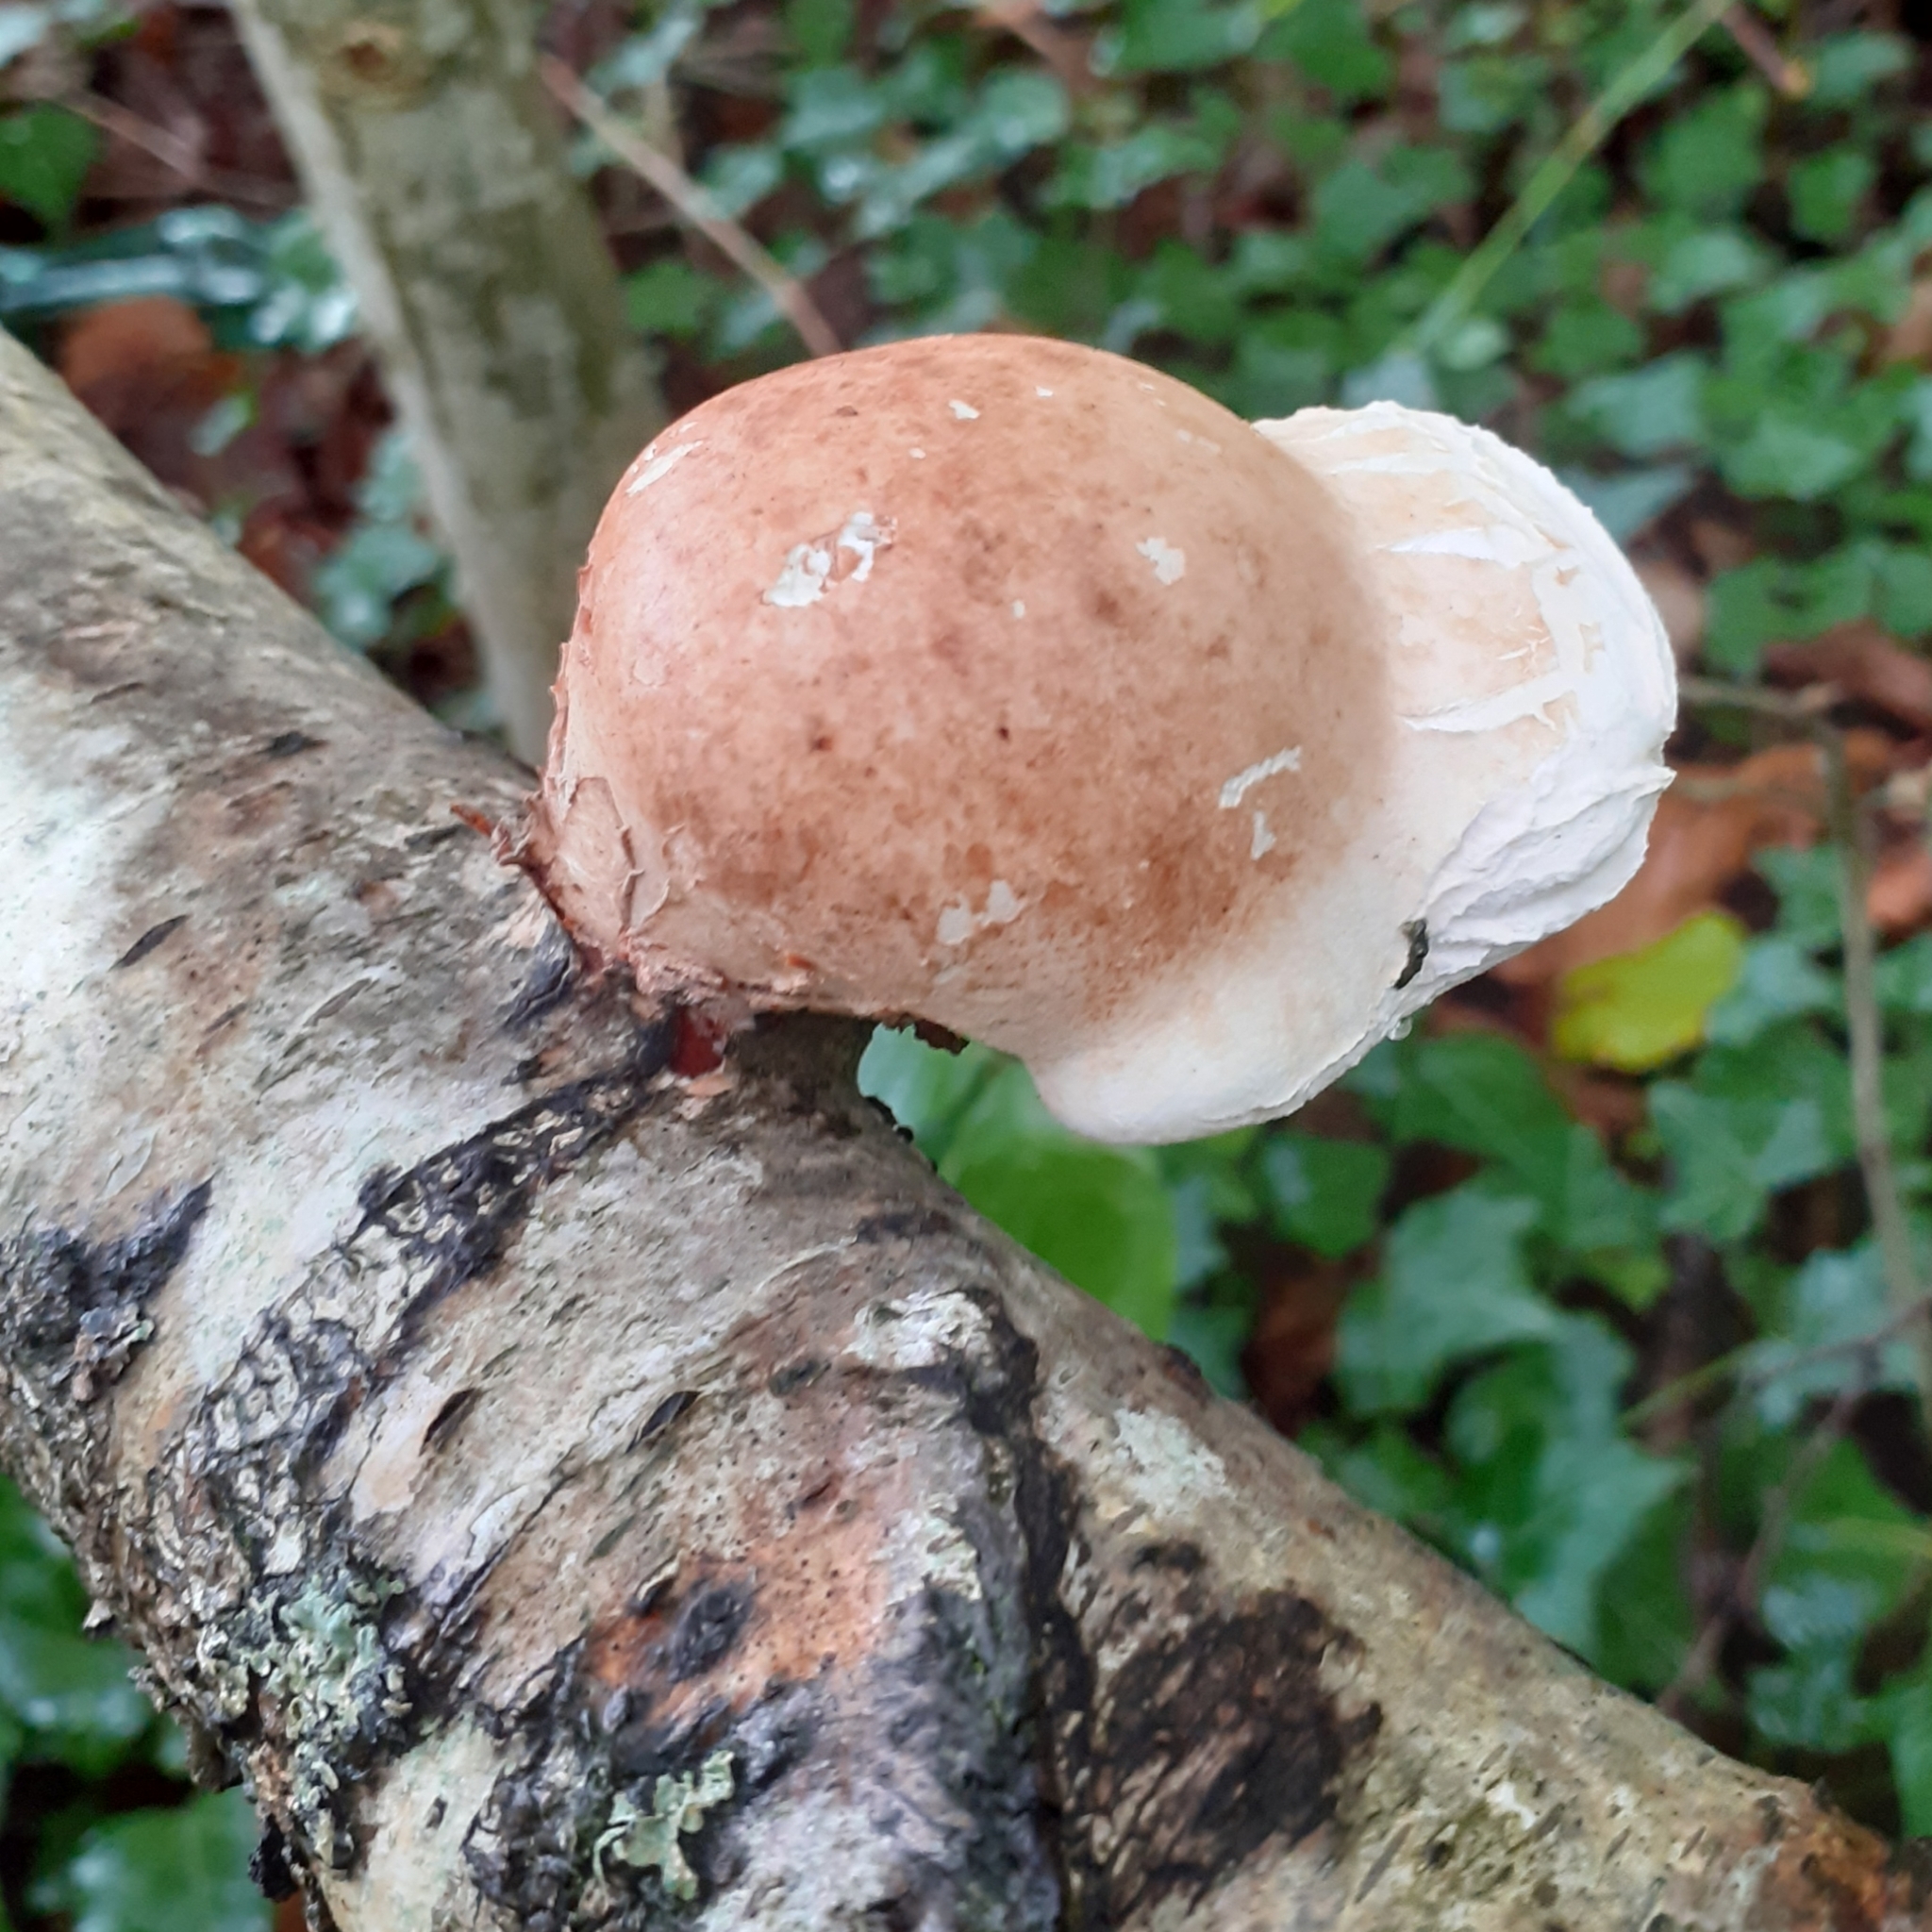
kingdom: Fungi
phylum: Basidiomycota
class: Agaricomycetes
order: Polyporales
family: Fomitopsidaceae
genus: Fomitopsis
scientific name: Fomitopsis betulina
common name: Birch polypore
